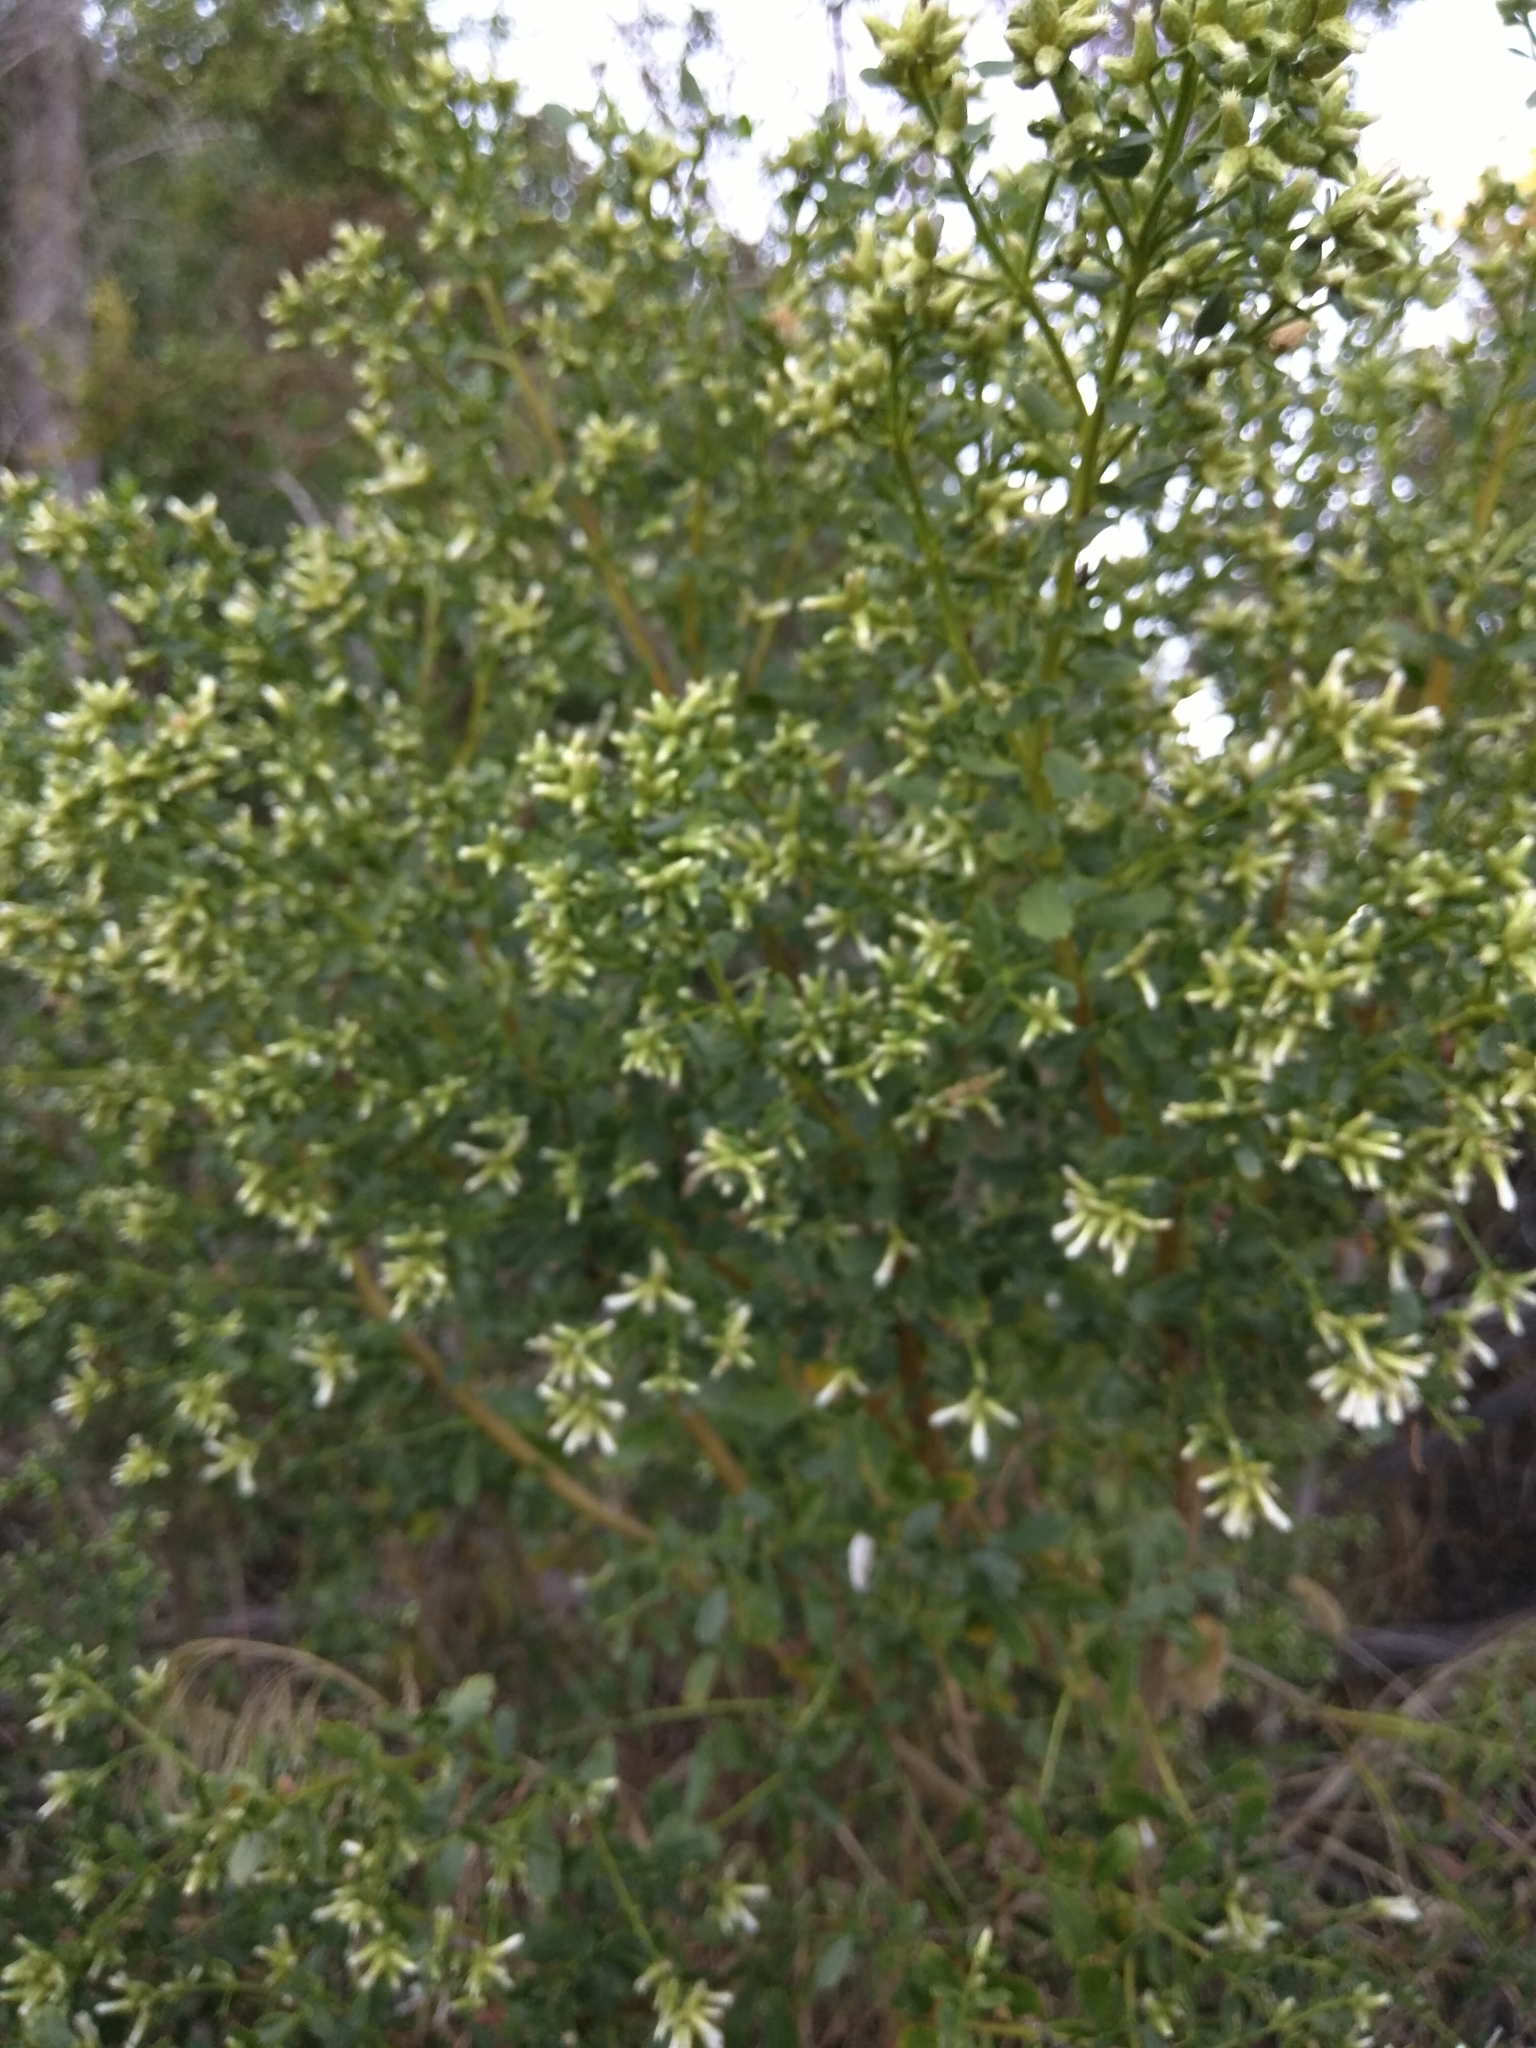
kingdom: Plantae
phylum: Tracheophyta
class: Magnoliopsida
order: Asterales
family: Asteraceae
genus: Baccharis
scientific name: Baccharis pilularis
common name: Coyotebrush
